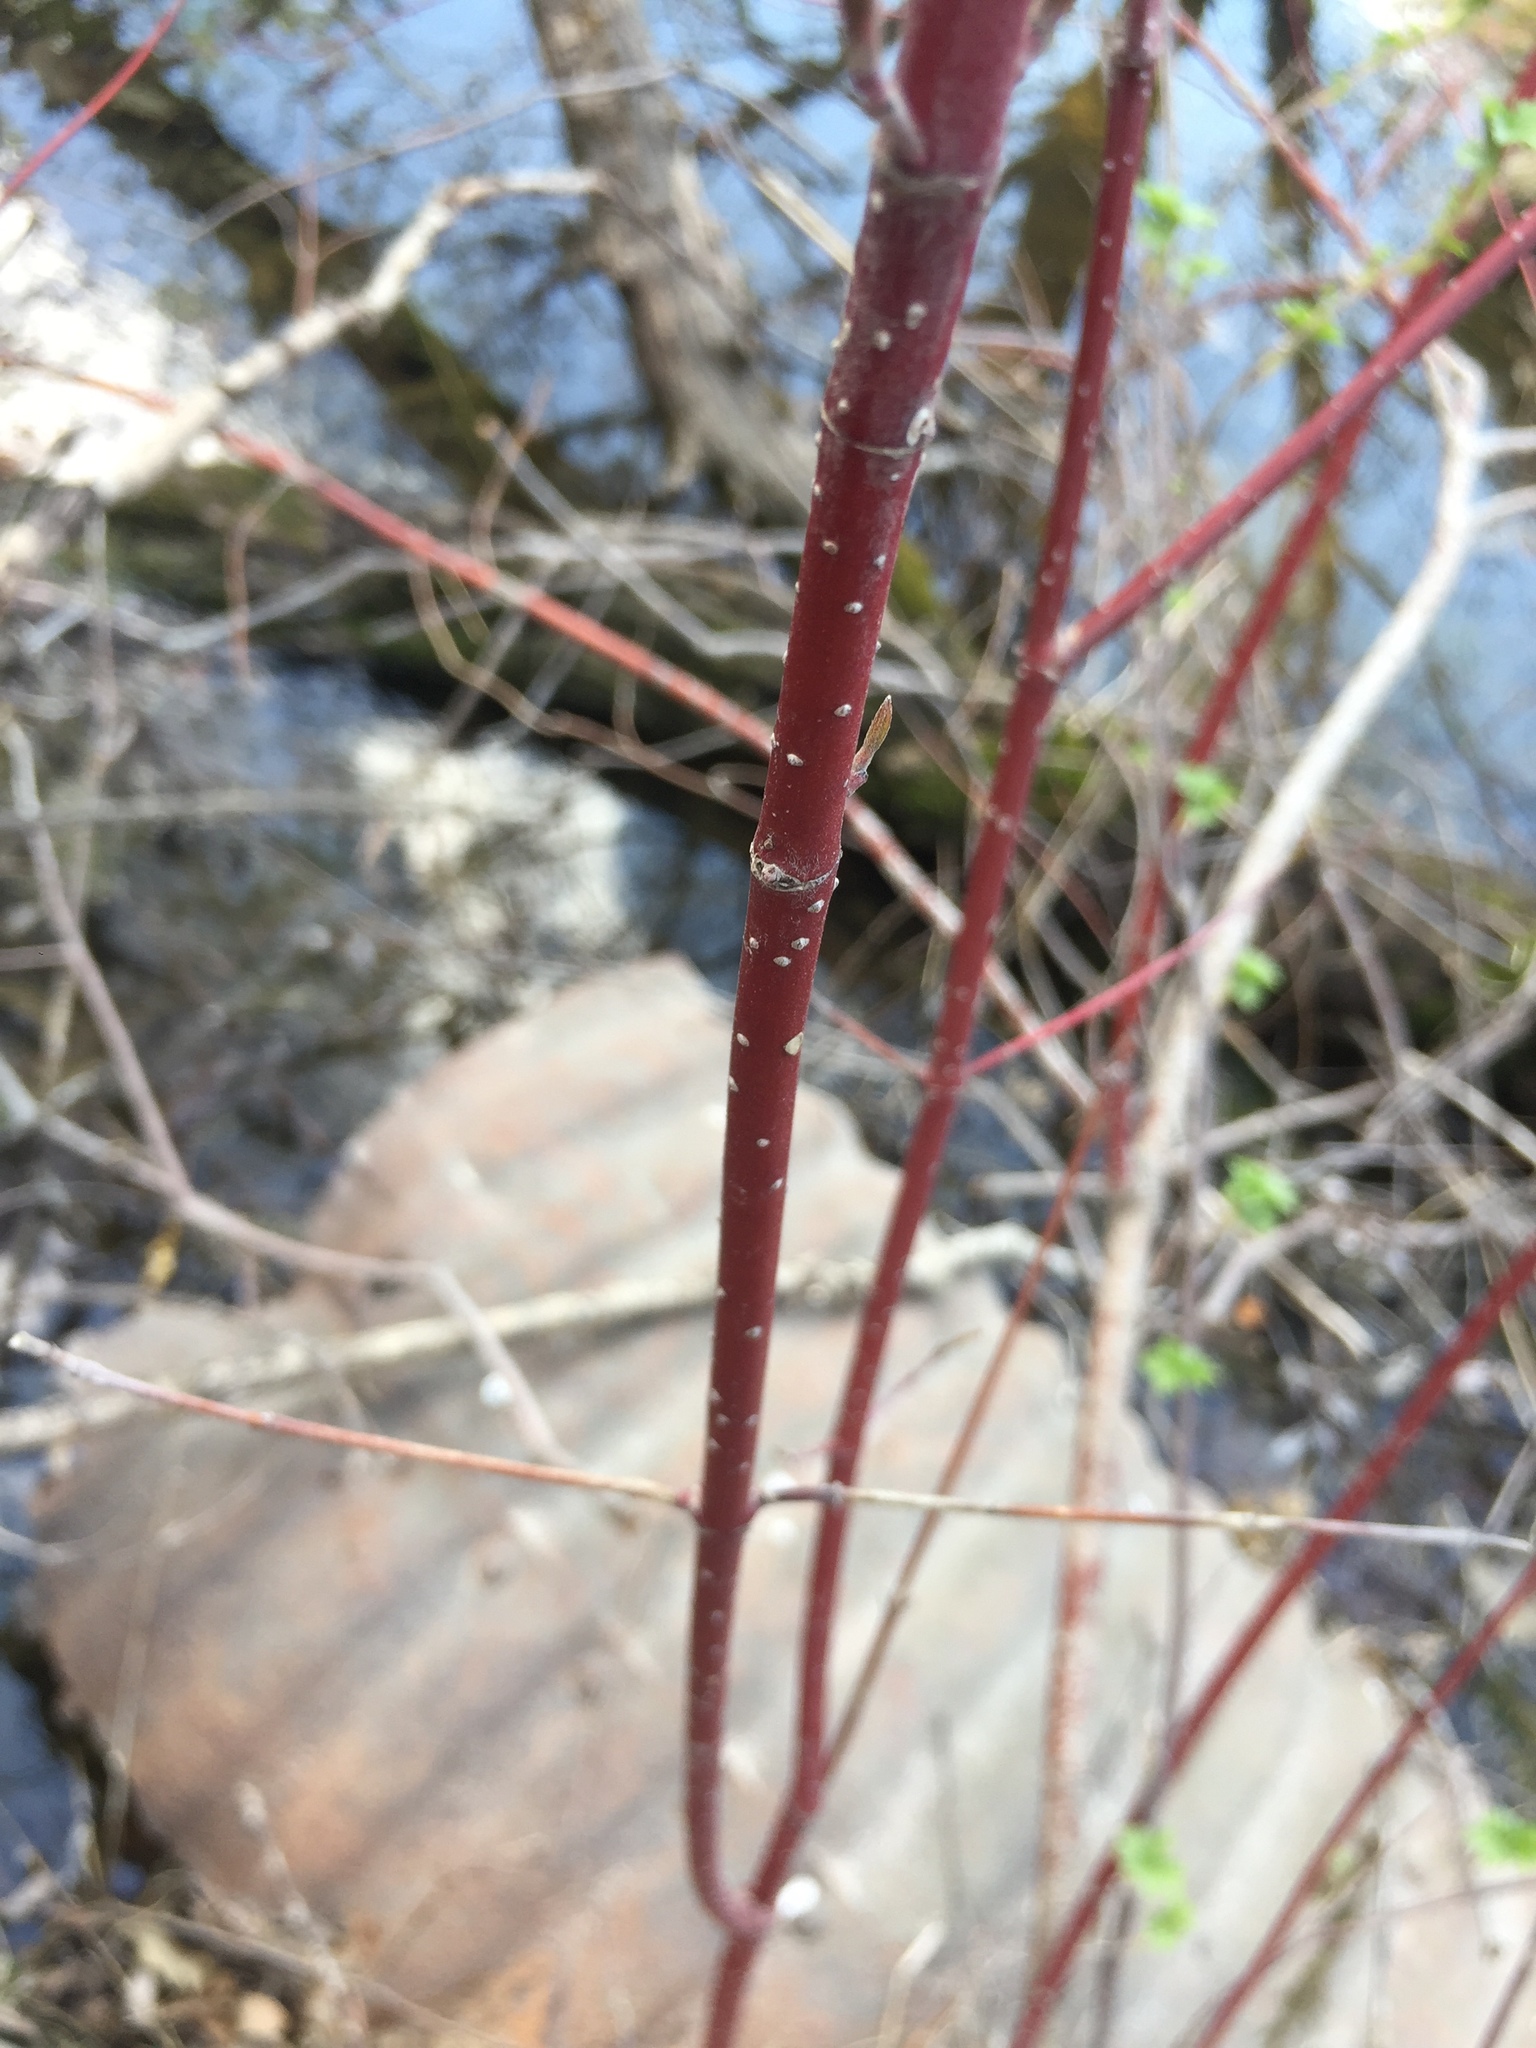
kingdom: Plantae
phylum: Tracheophyta
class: Magnoliopsida
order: Cornales
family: Cornaceae
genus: Cornus
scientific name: Cornus sericea
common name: Red-osier dogwood
